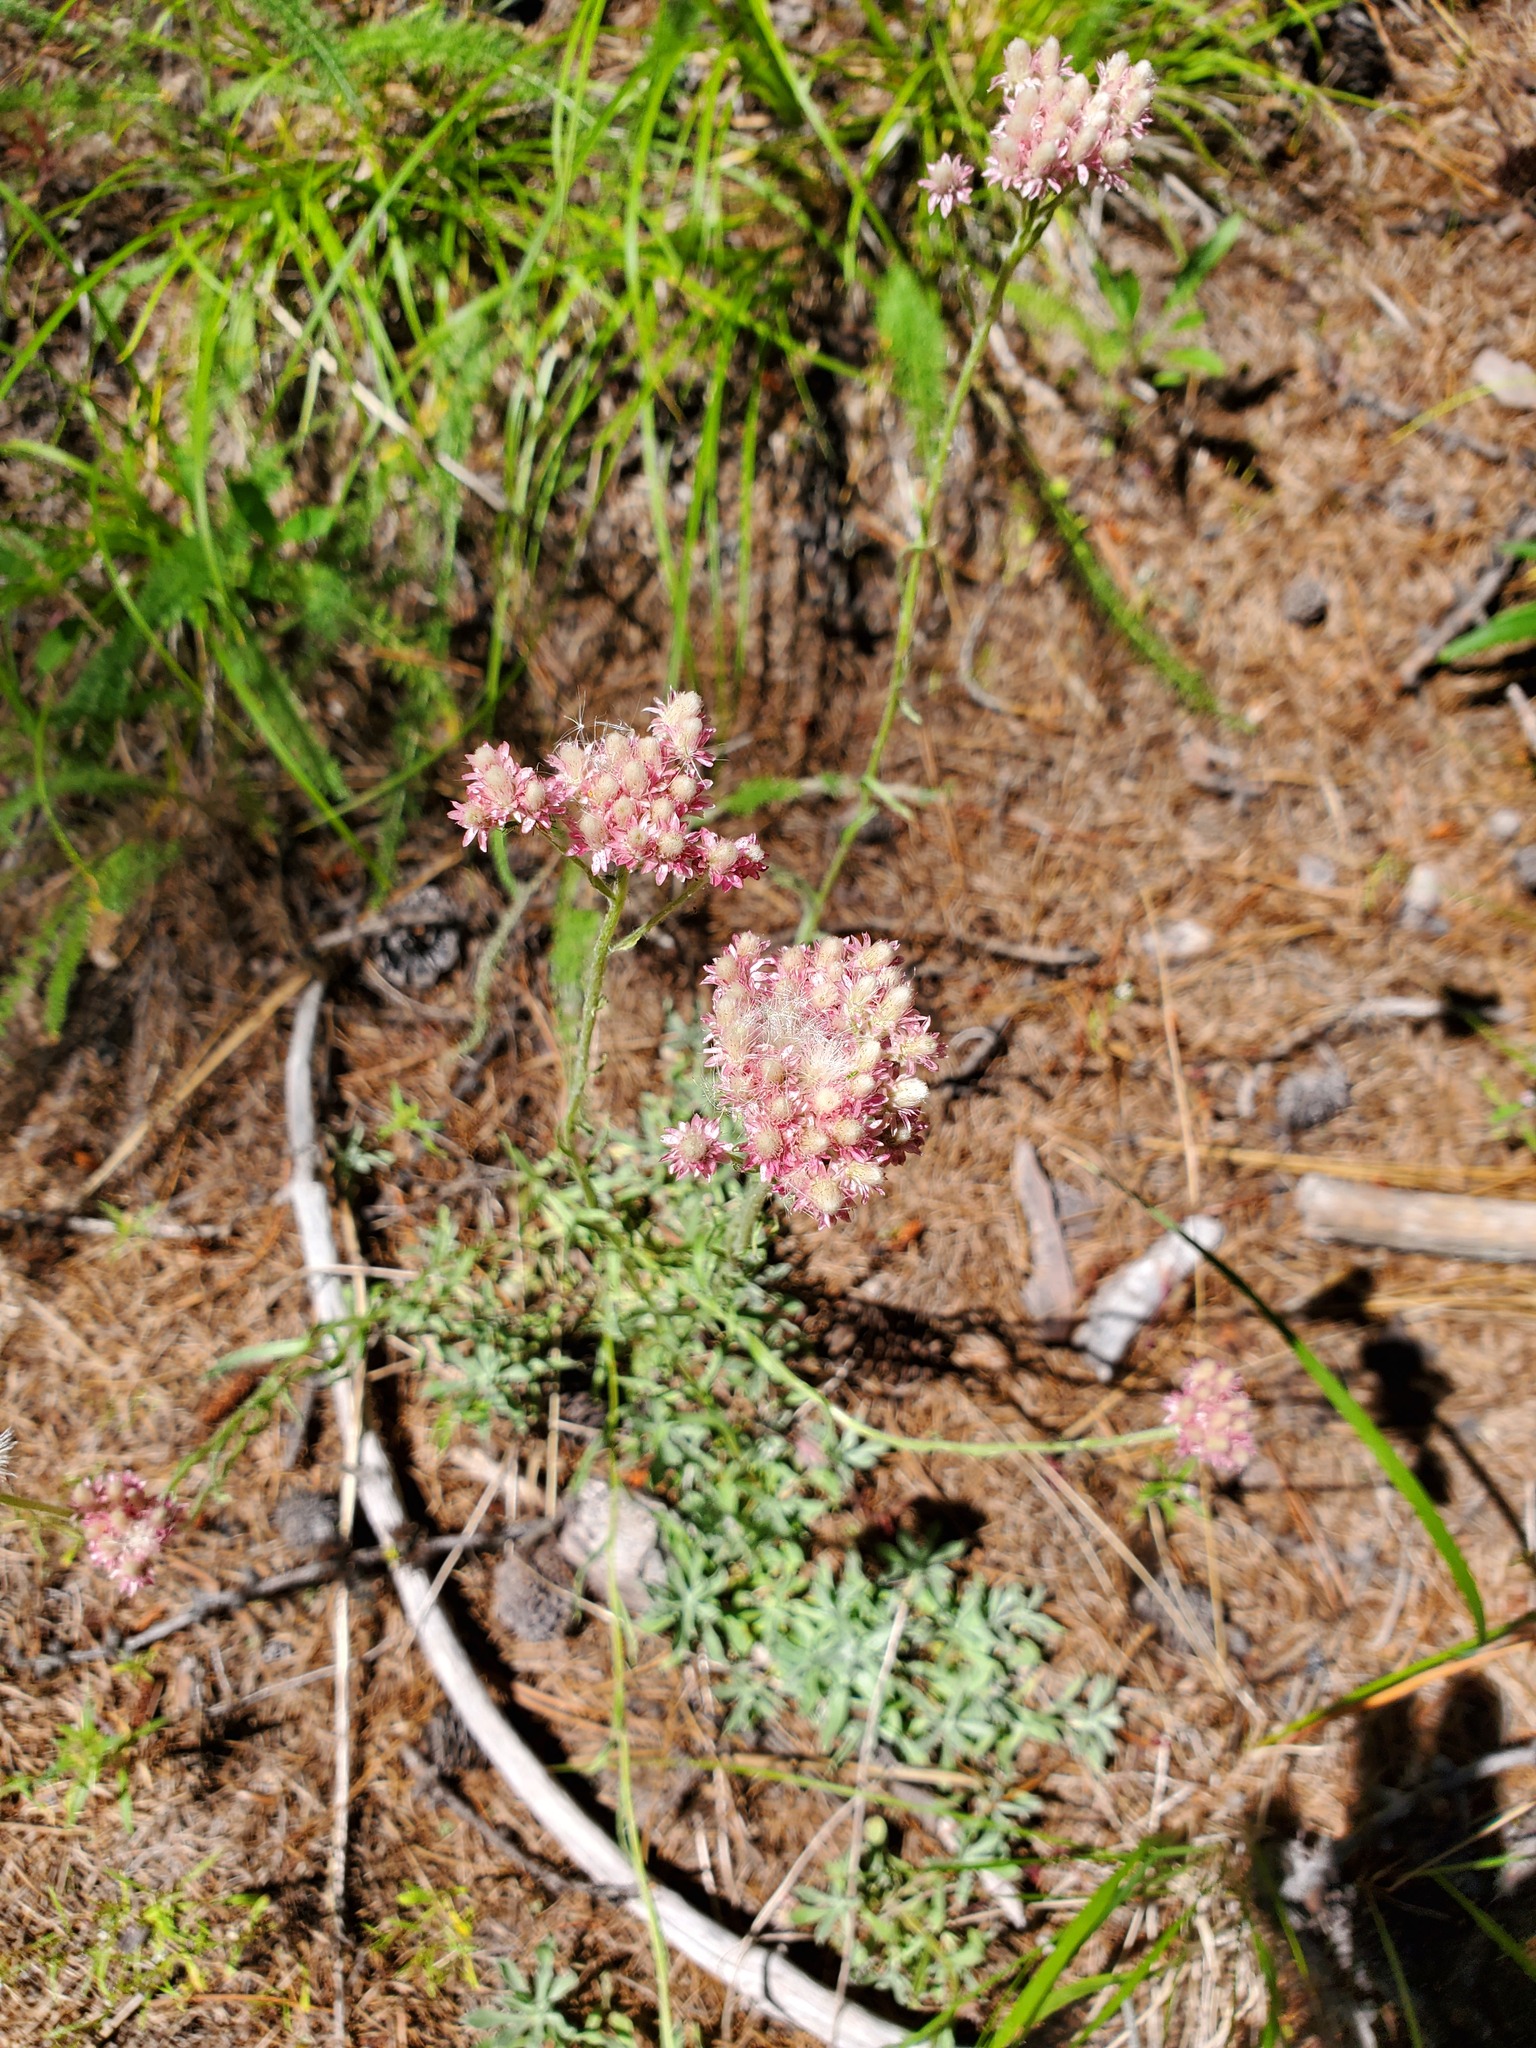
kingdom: Plantae
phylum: Tracheophyta
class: Magnoliopsida
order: Asterales
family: Asteraceae
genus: Antennaria
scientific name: Antennaria rosea
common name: Rosy pussytoes
